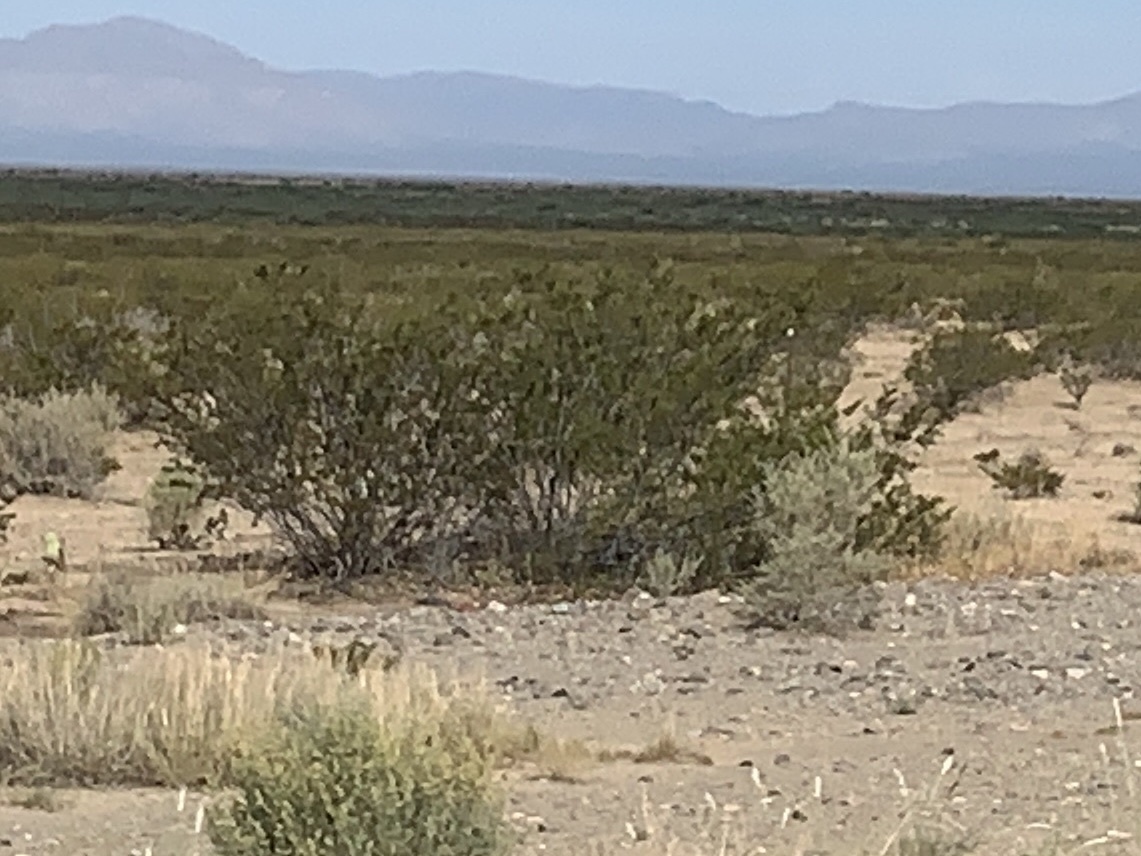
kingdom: Plantae
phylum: Tracheophyta
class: Magnoliopsida
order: Zygophyllales
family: Zygophyllaceae
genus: Larrea
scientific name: Larrea tridentata
